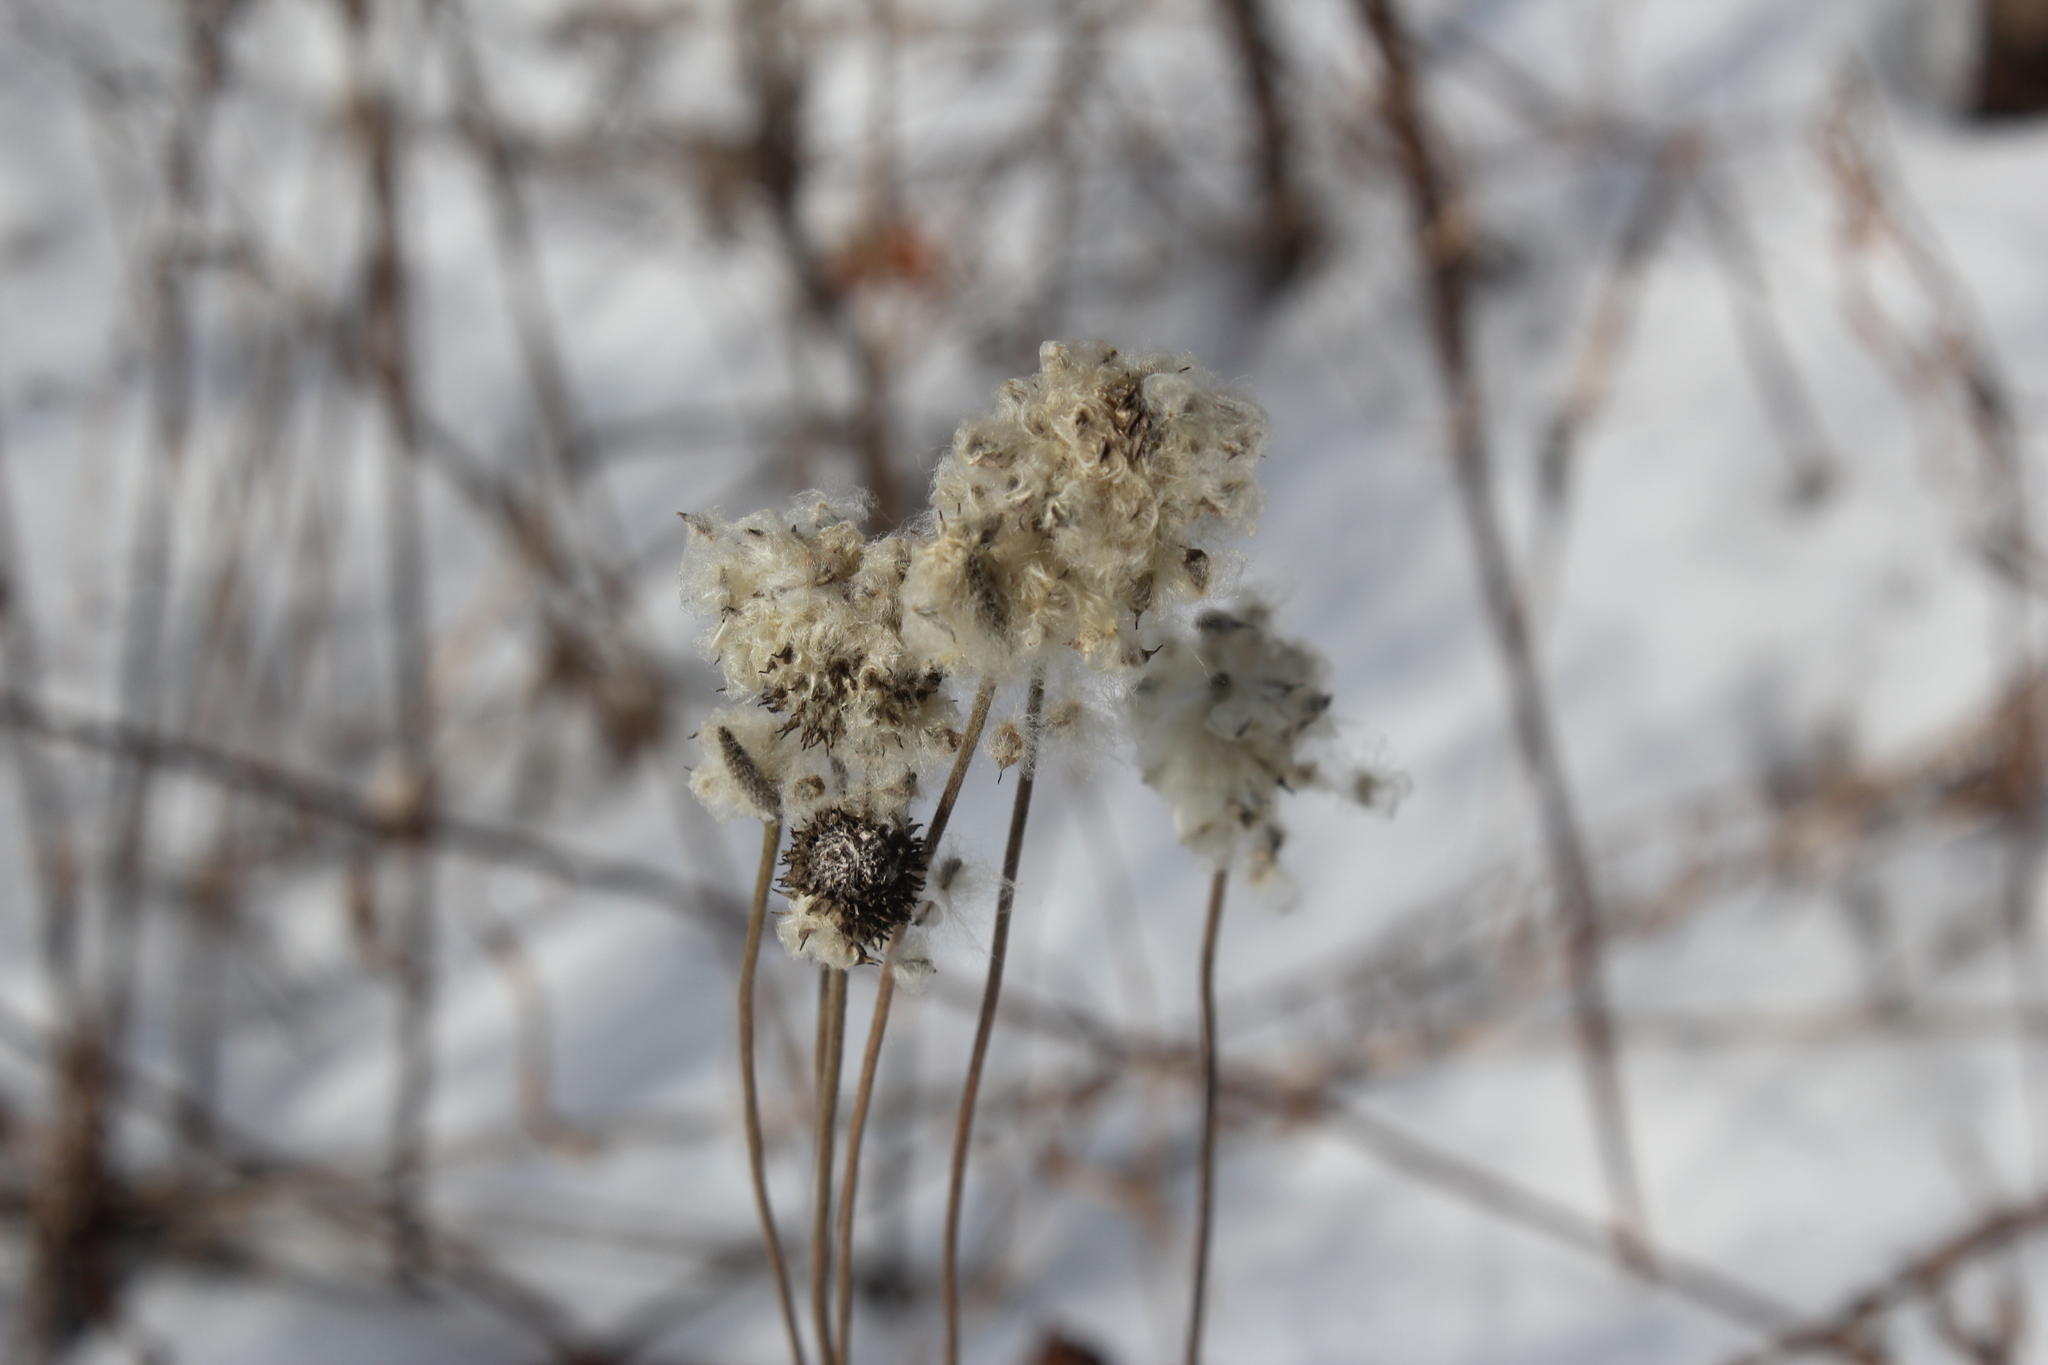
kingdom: Plantae
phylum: Tracheophyta
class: Magnoliopsida
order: Ranunculales
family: Ranunculaceae
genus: Anemone
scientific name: Anemone virginiana
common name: Tall anemone
